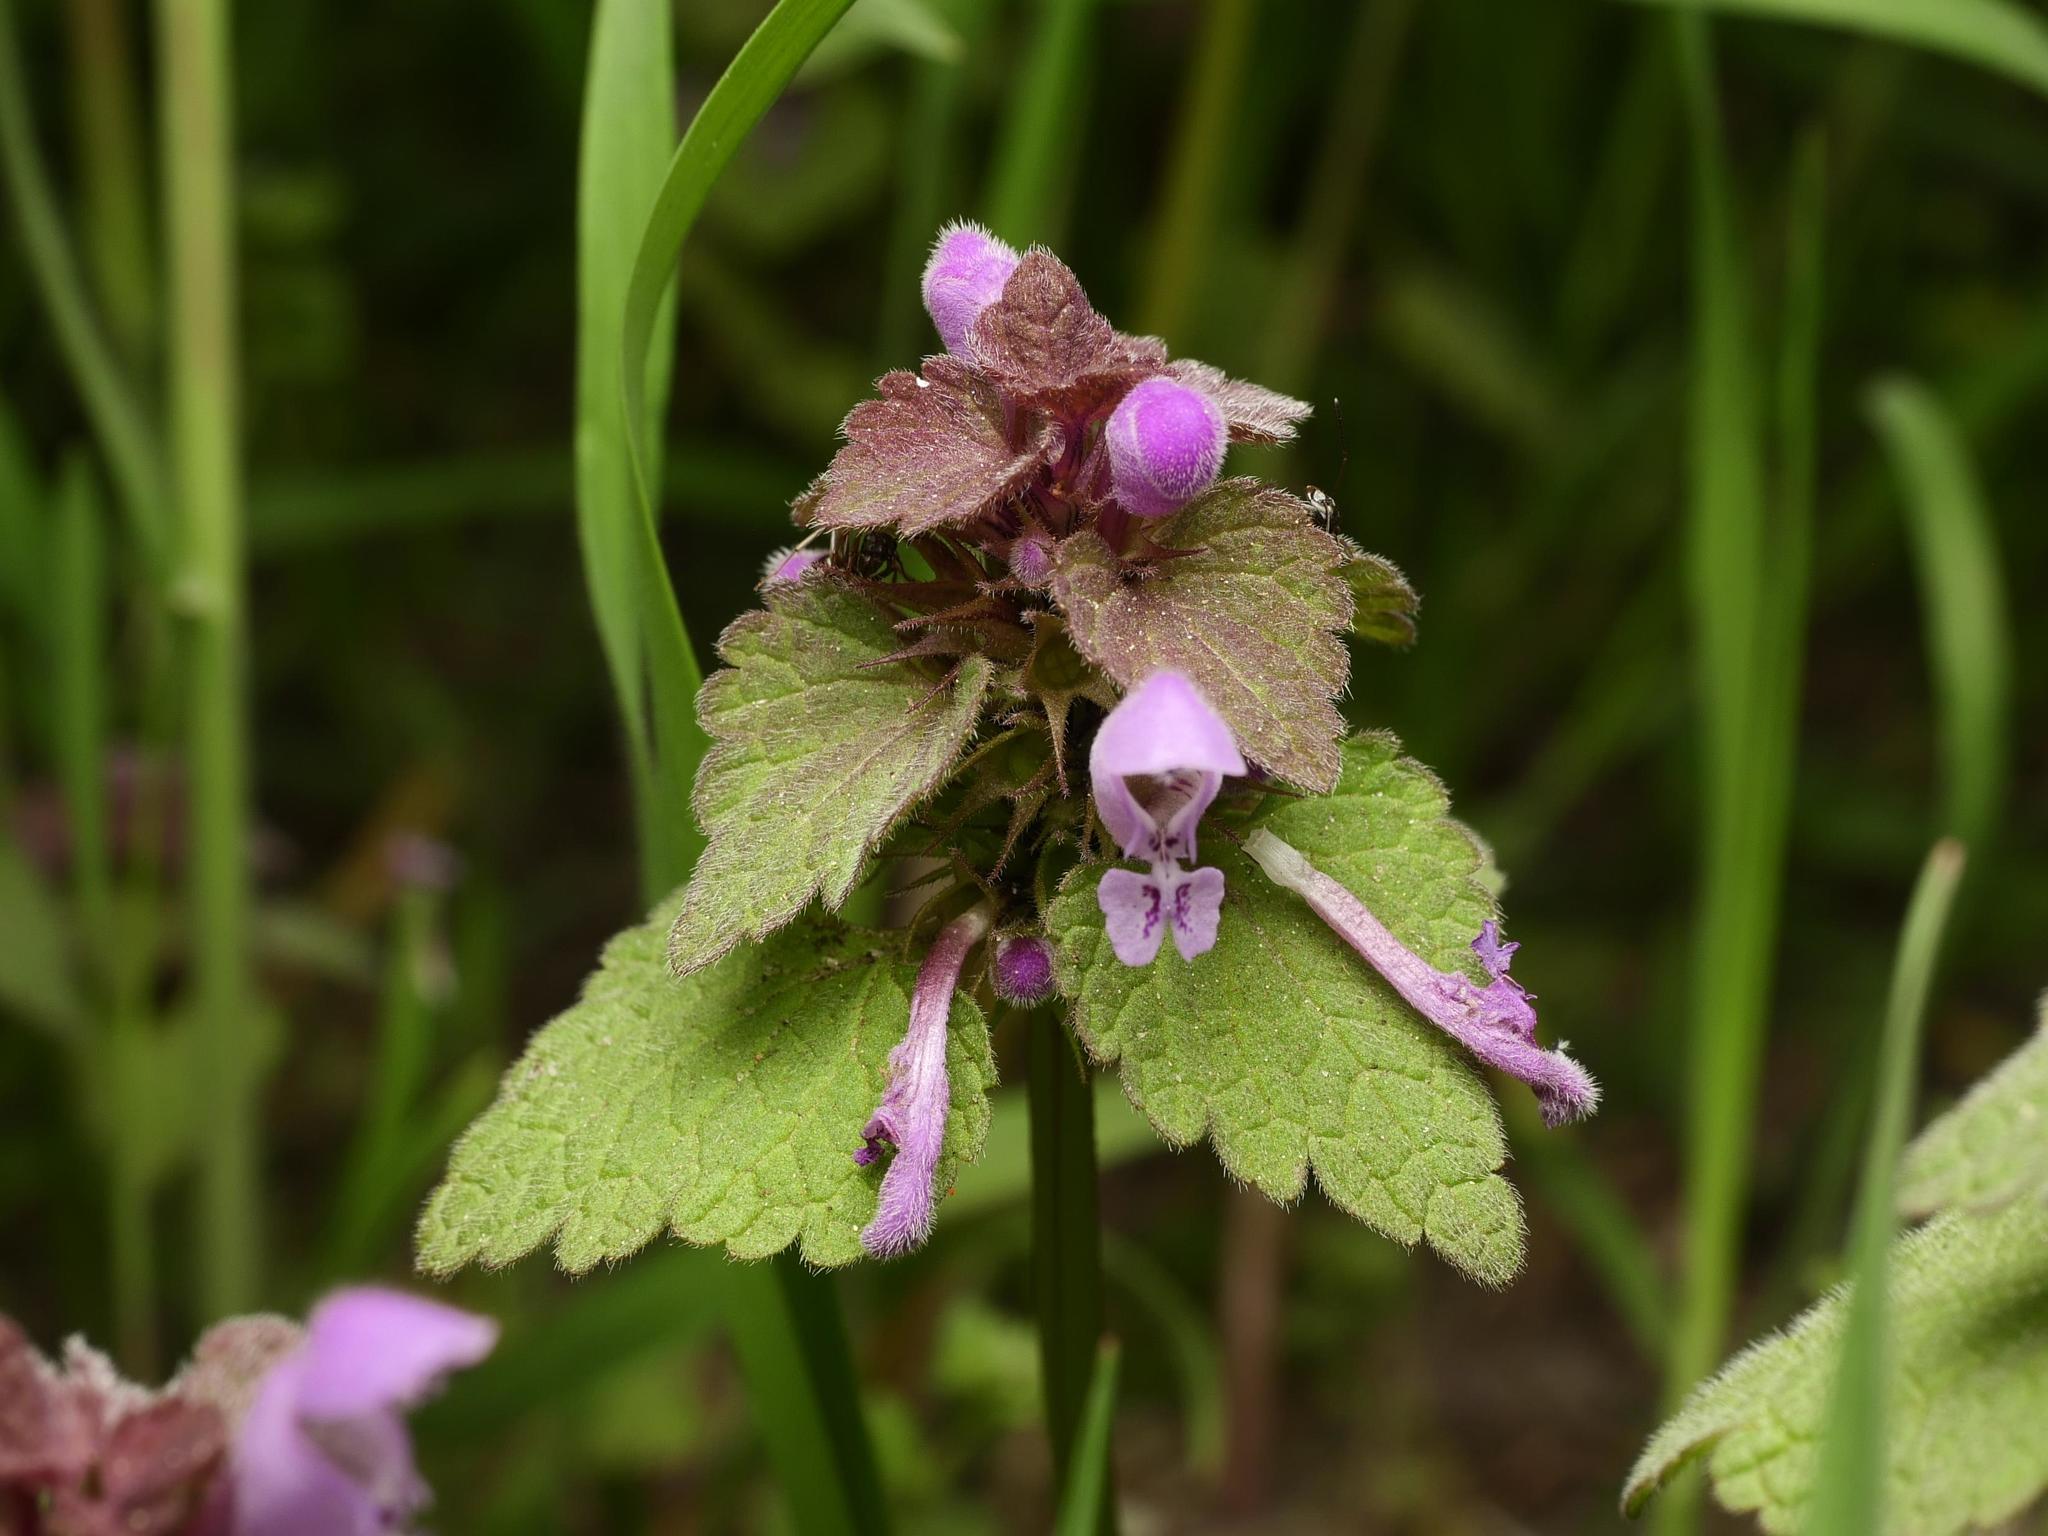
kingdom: Plantae
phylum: Tracheophyta
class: Magnoliopsida
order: Lamiales
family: Lamiaceae
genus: Lamium
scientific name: Lamium purpureum
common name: Red dead-nettle
